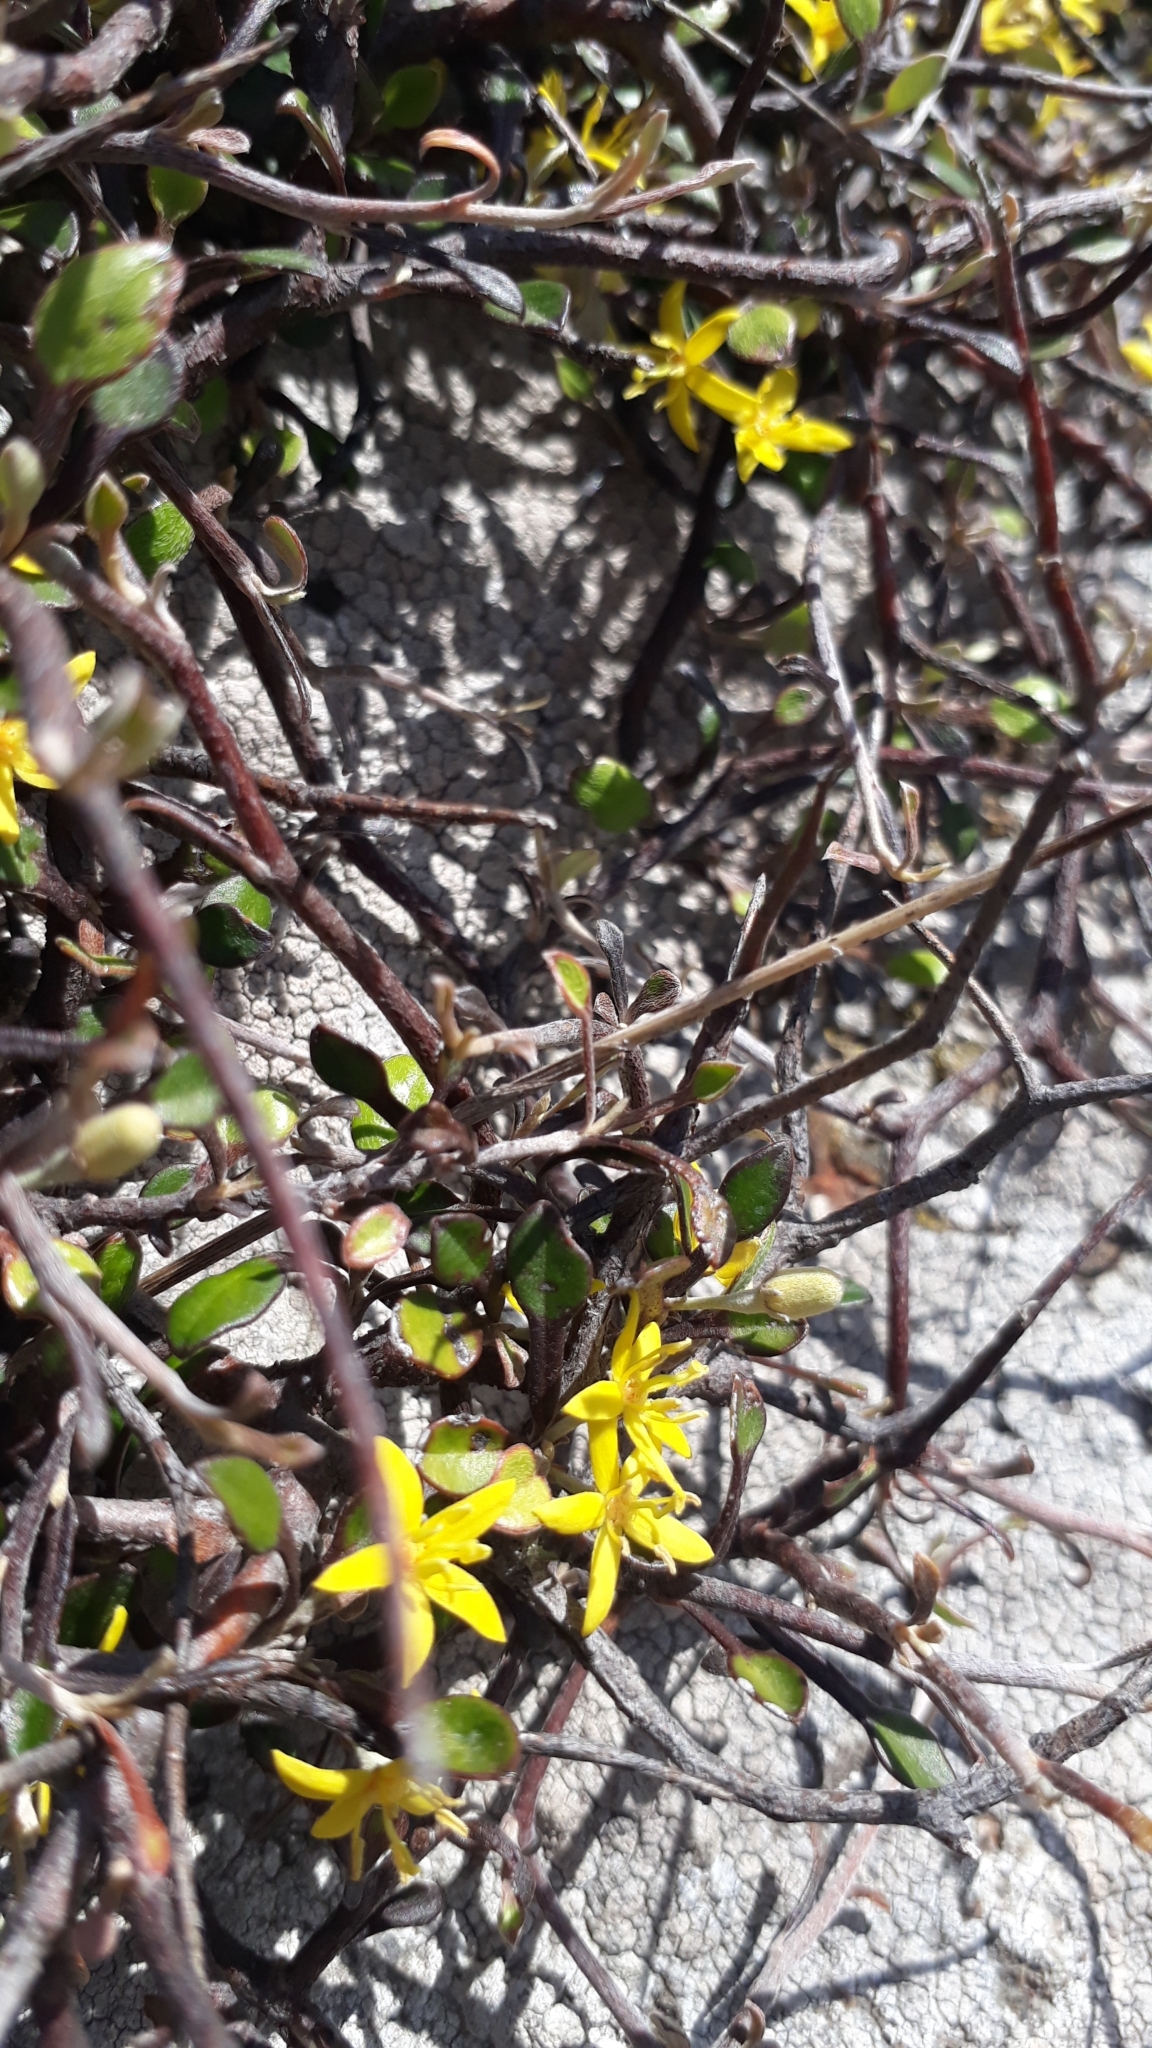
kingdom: Plantae
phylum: Tracheophyta
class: Magnoliopsida
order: Asterales
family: Argophyllaceae
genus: Corokia
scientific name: Corokia cotoneaster
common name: Wire nettingbush
